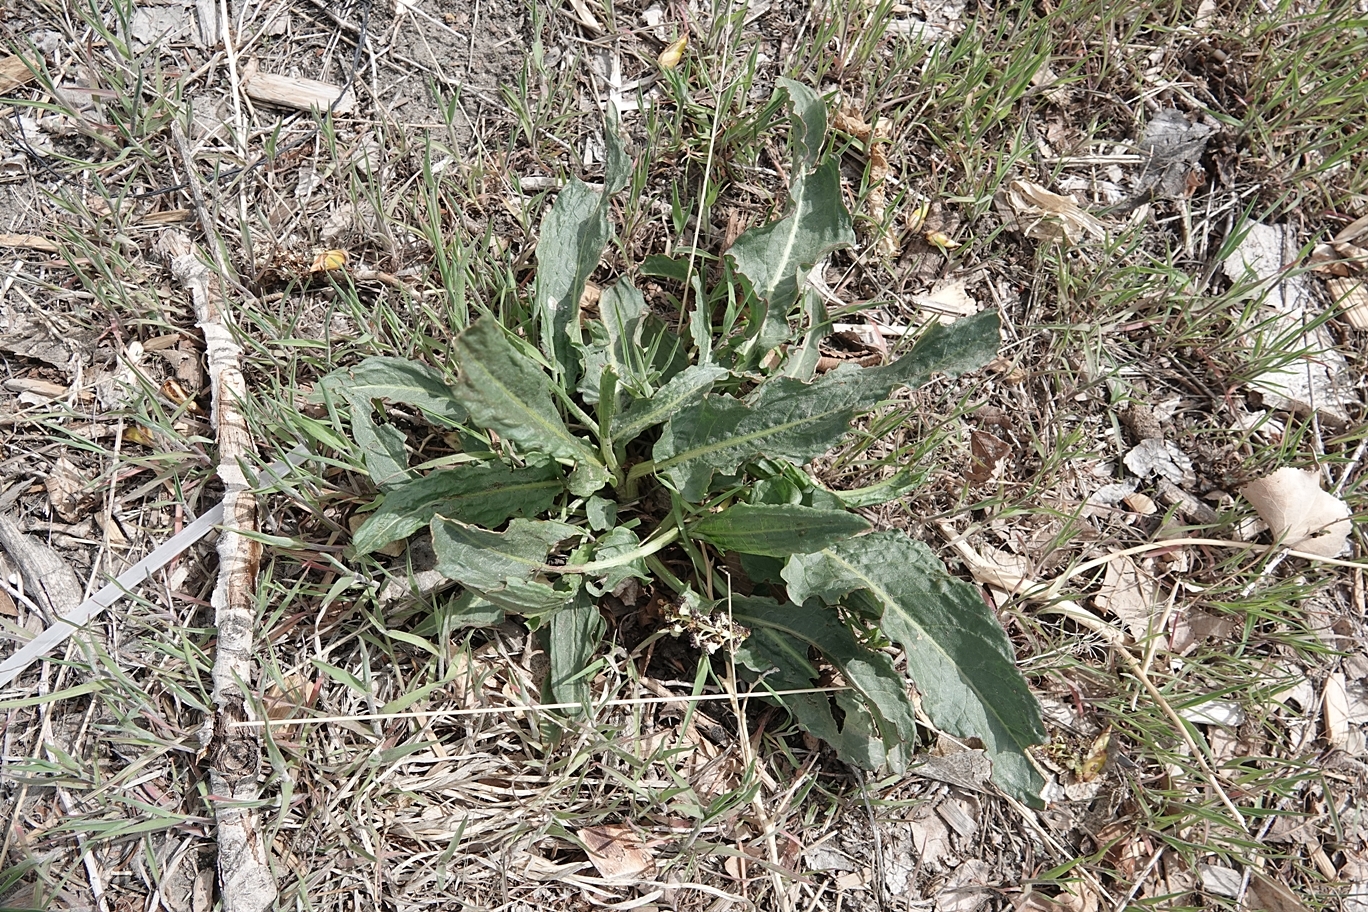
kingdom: Plantae
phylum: Tracheophyta
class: Magnoliopsida
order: Caryophyllales
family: Polygonaceae
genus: Rumex
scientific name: Rumex crispus
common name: Curled dock
